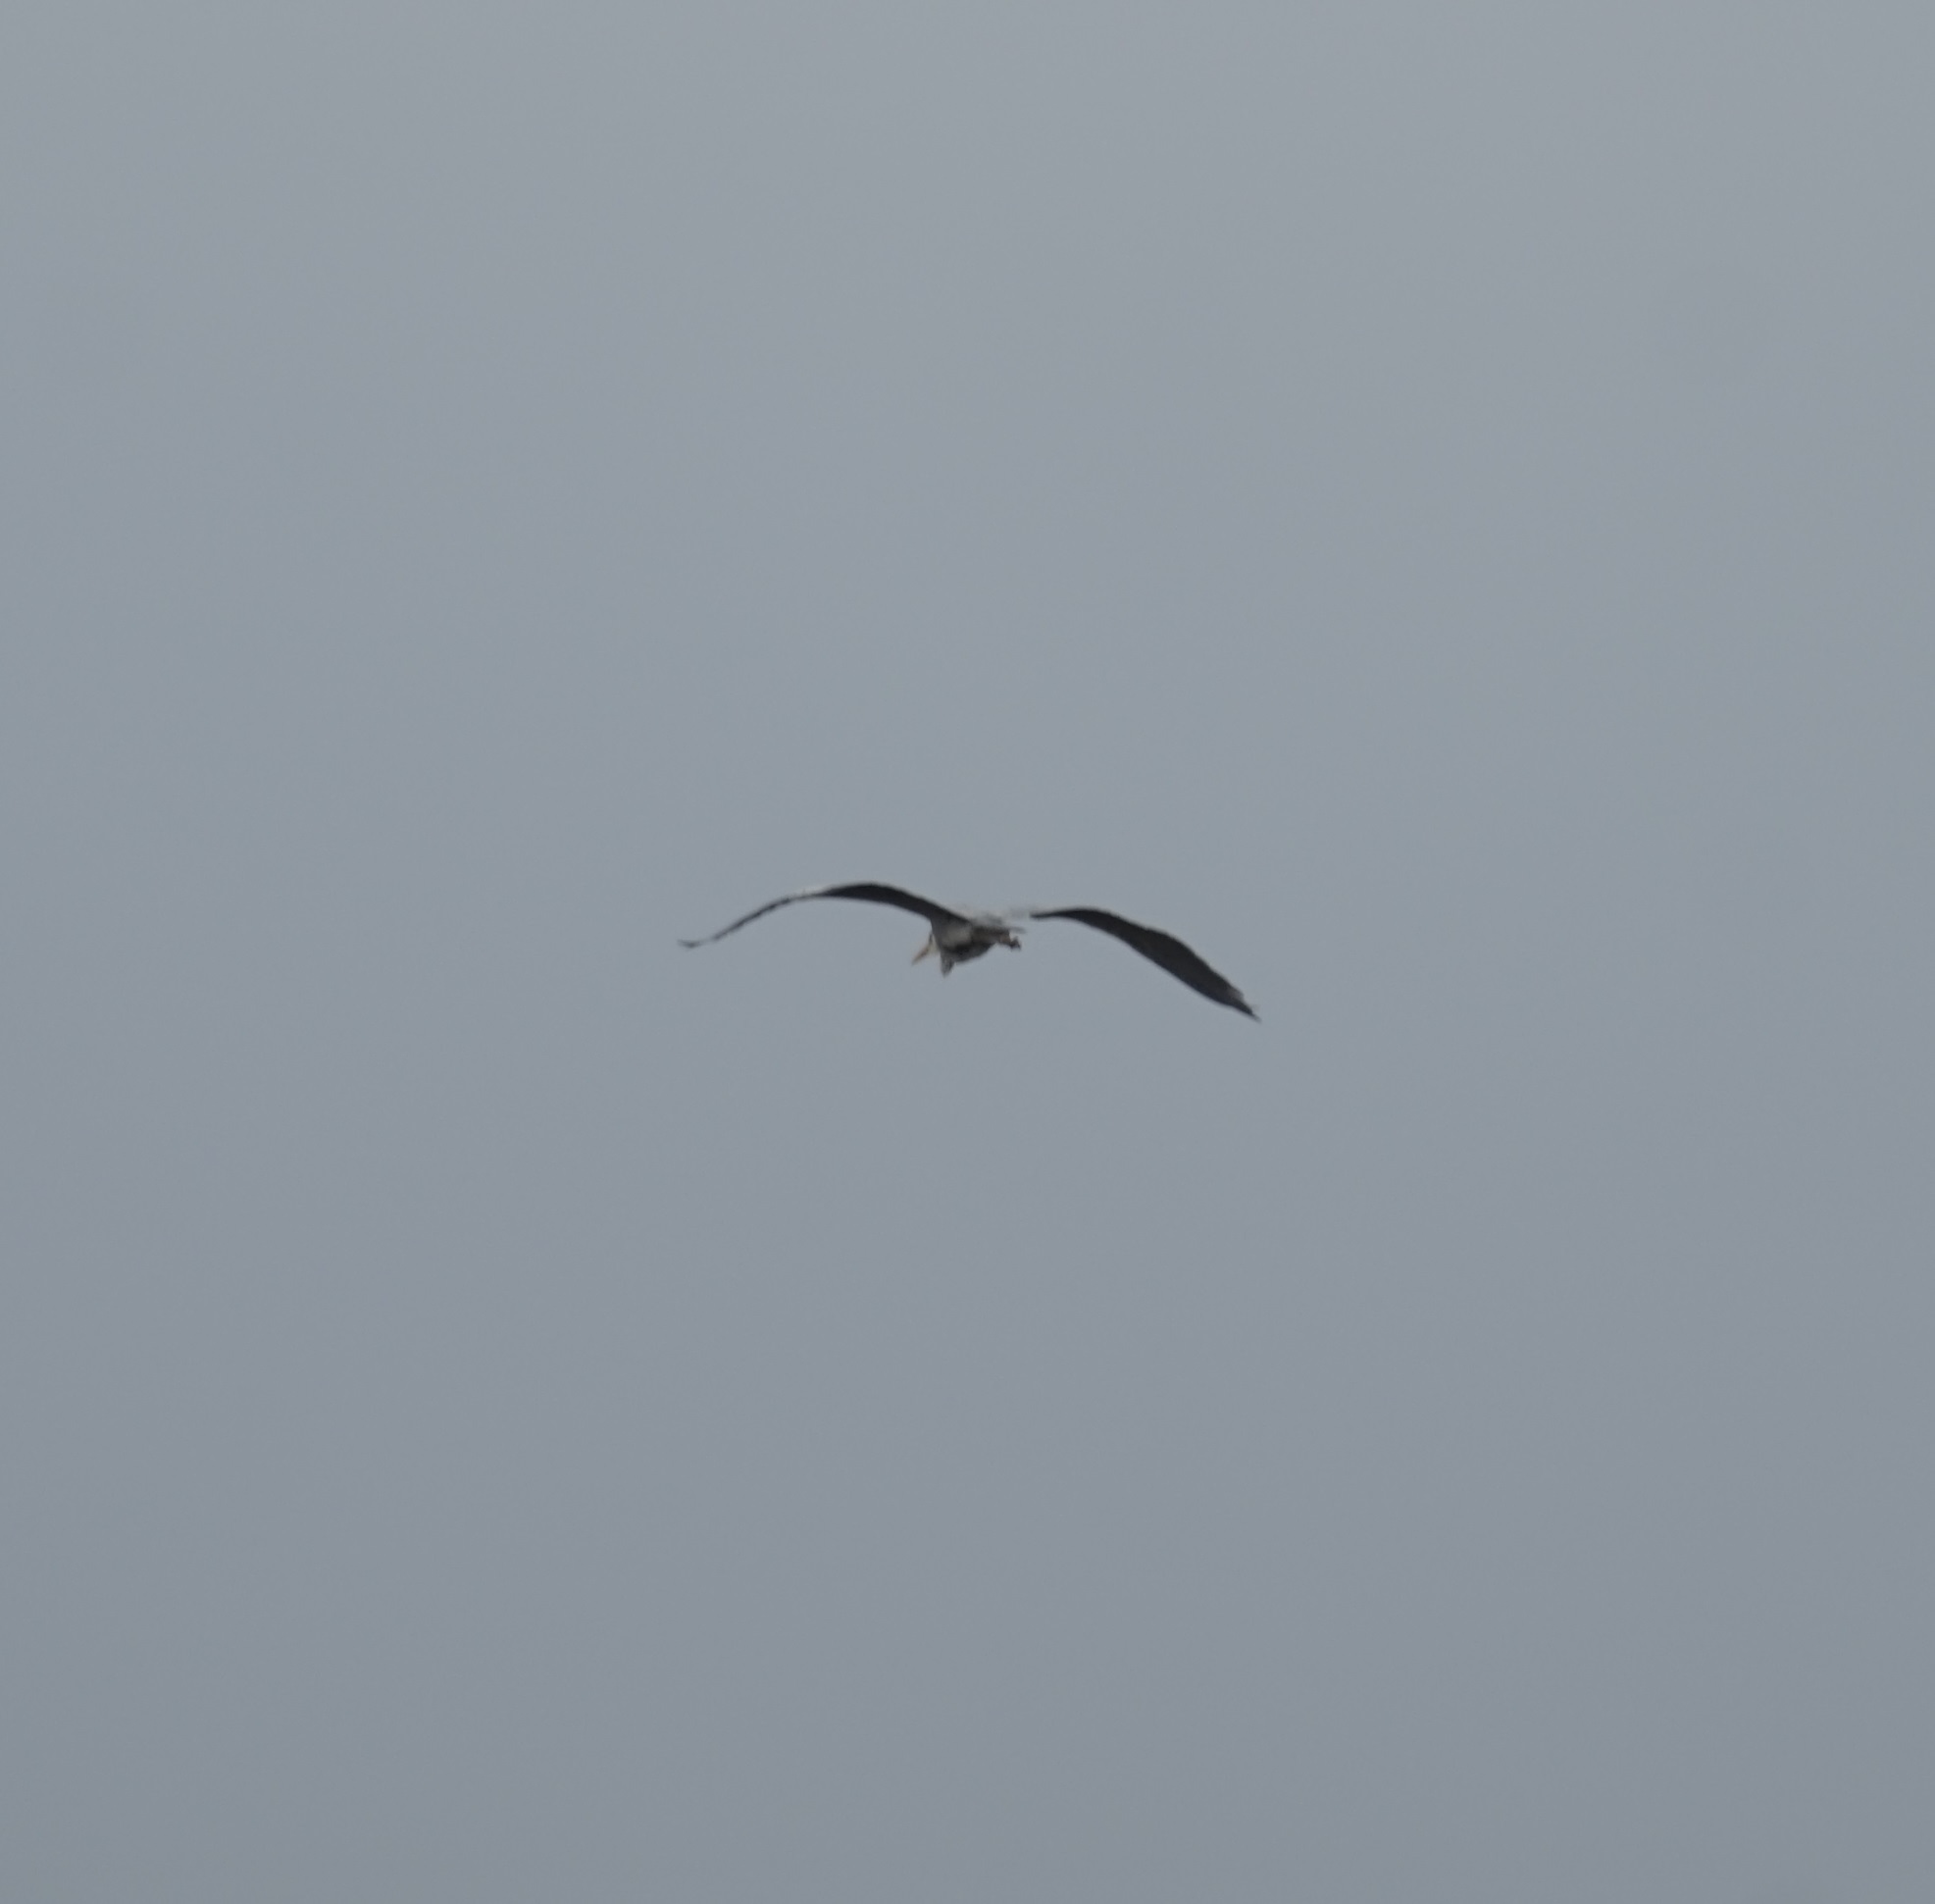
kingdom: Animalia
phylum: Chordata
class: Aves
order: Pelecaniformes
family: Ardeidae
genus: Ardea
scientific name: Ardea cinerea
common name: Grey heron
